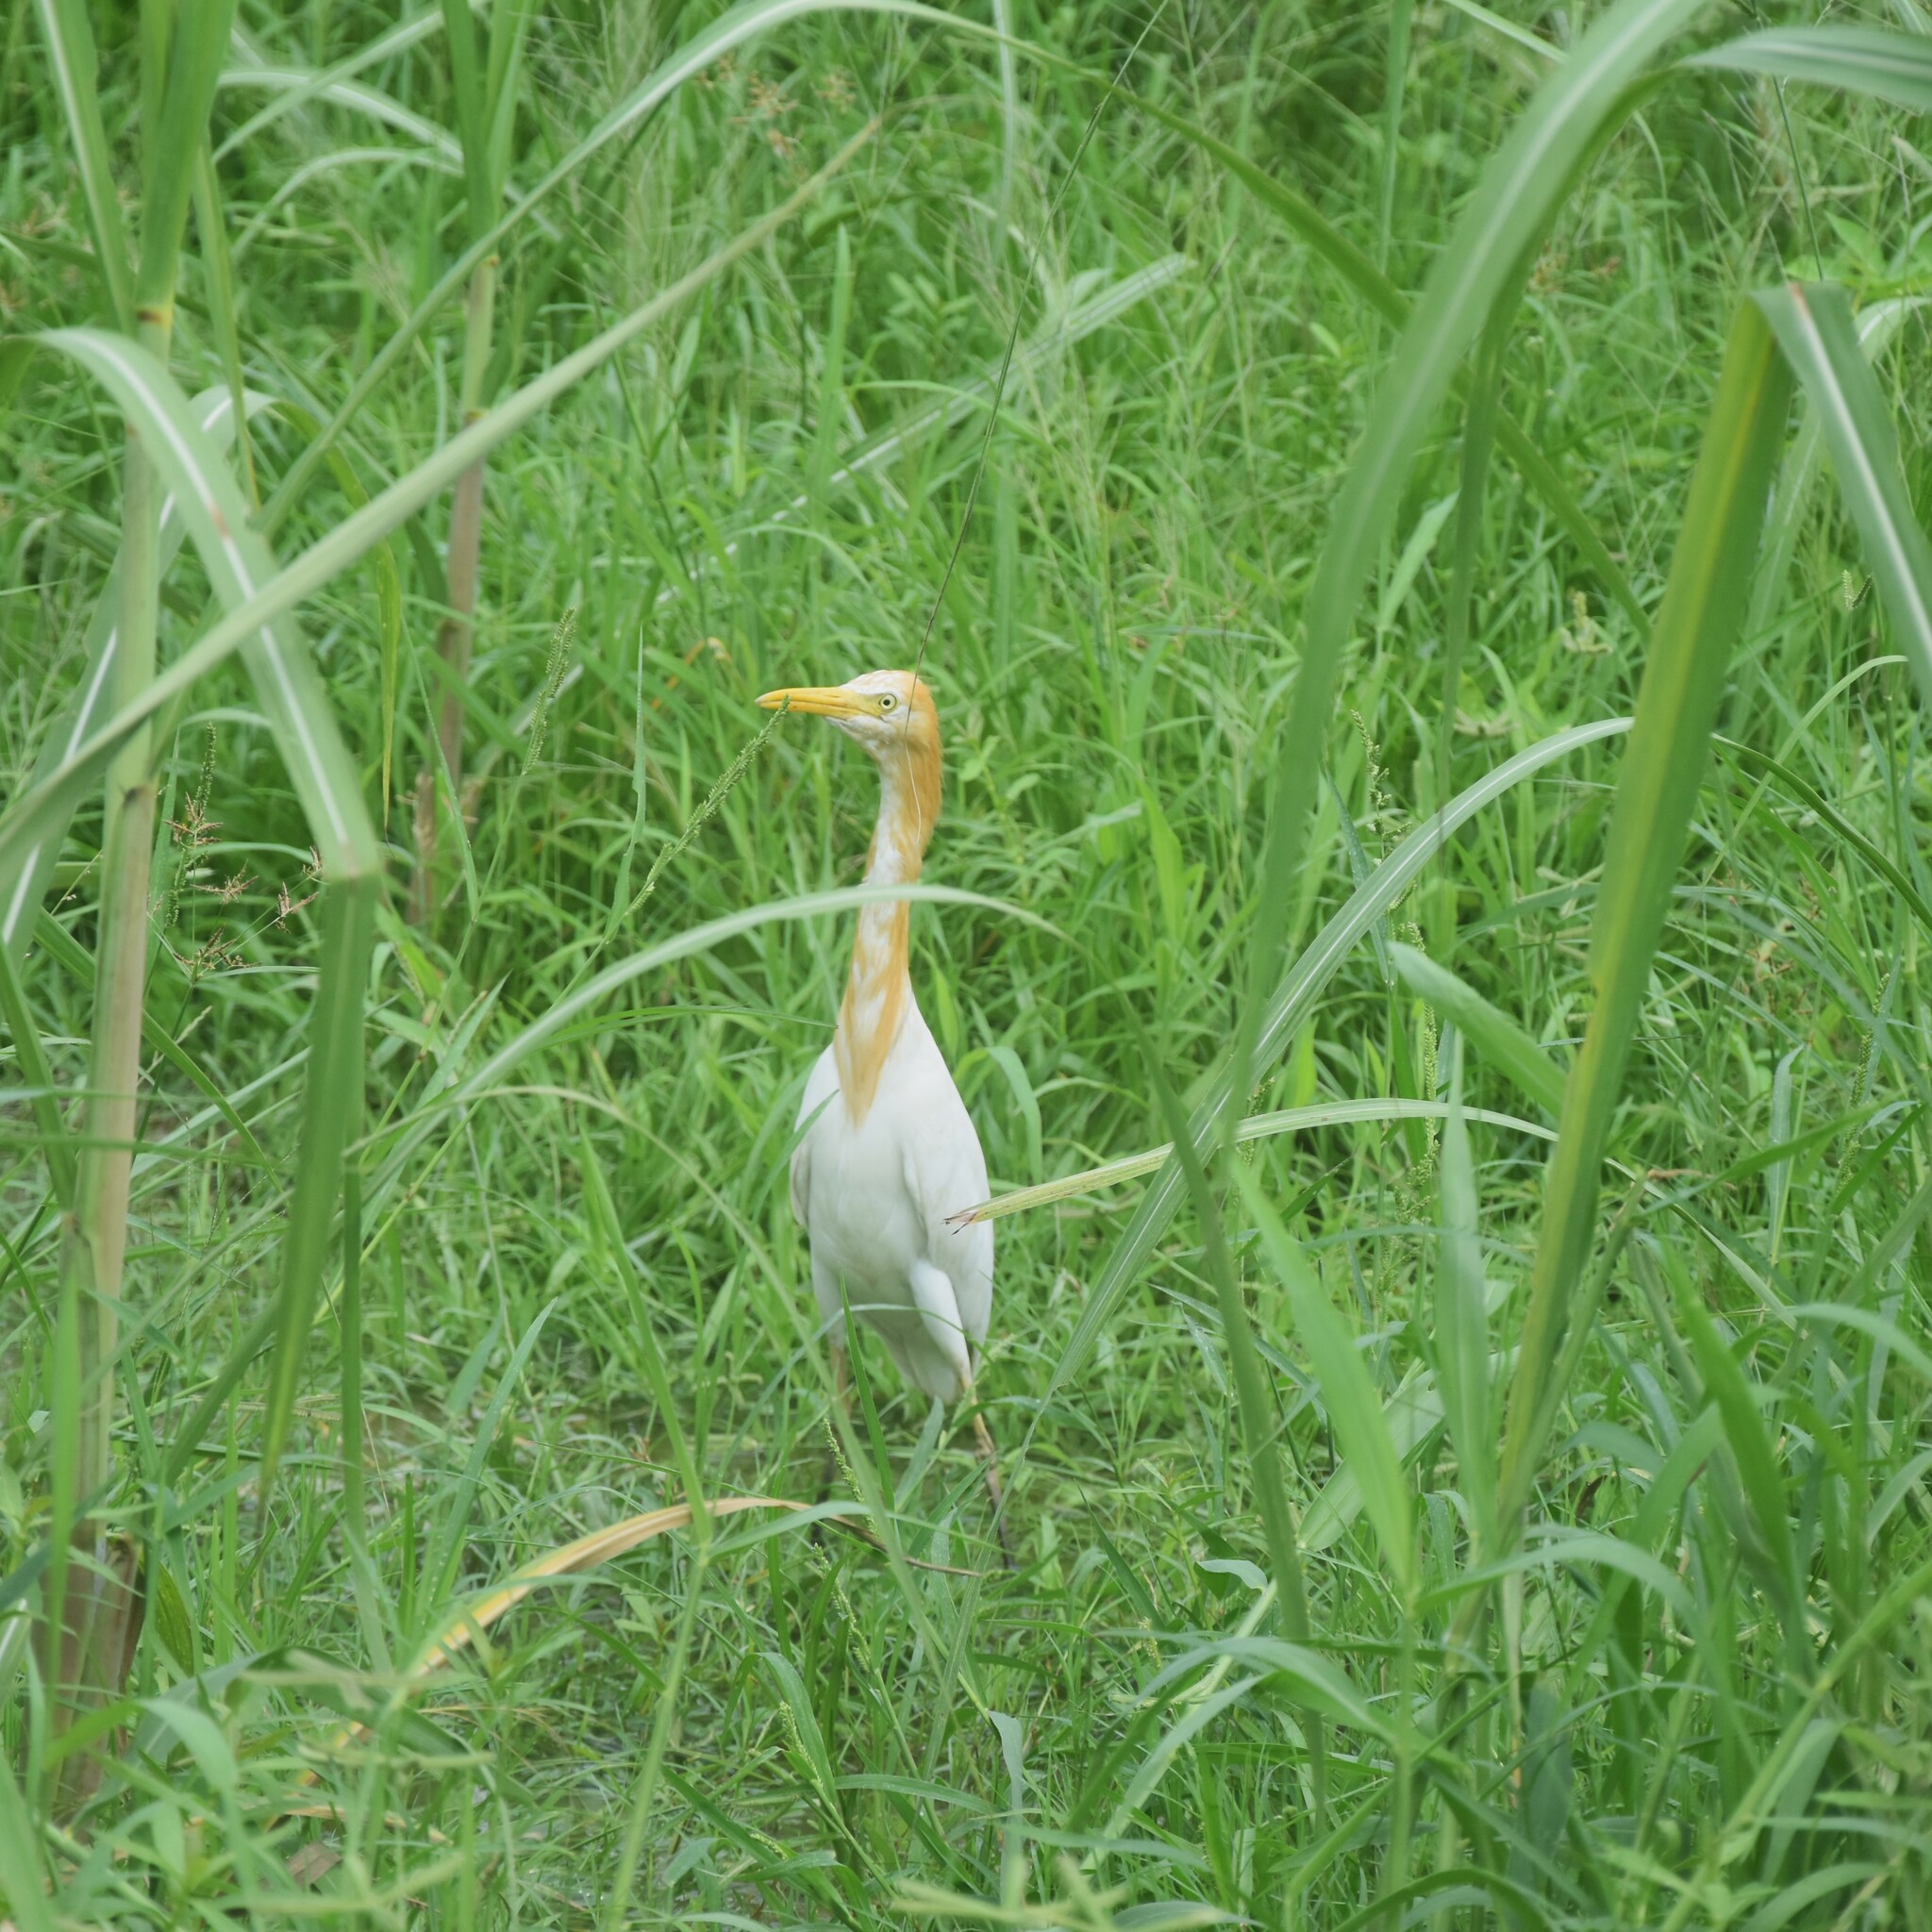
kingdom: Animalia
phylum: Chordata
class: Aves
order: Pelecaniformes
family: Ardeidae
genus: Bubulcus
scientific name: Bubulcus coromandus
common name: Eastern cattle egret
